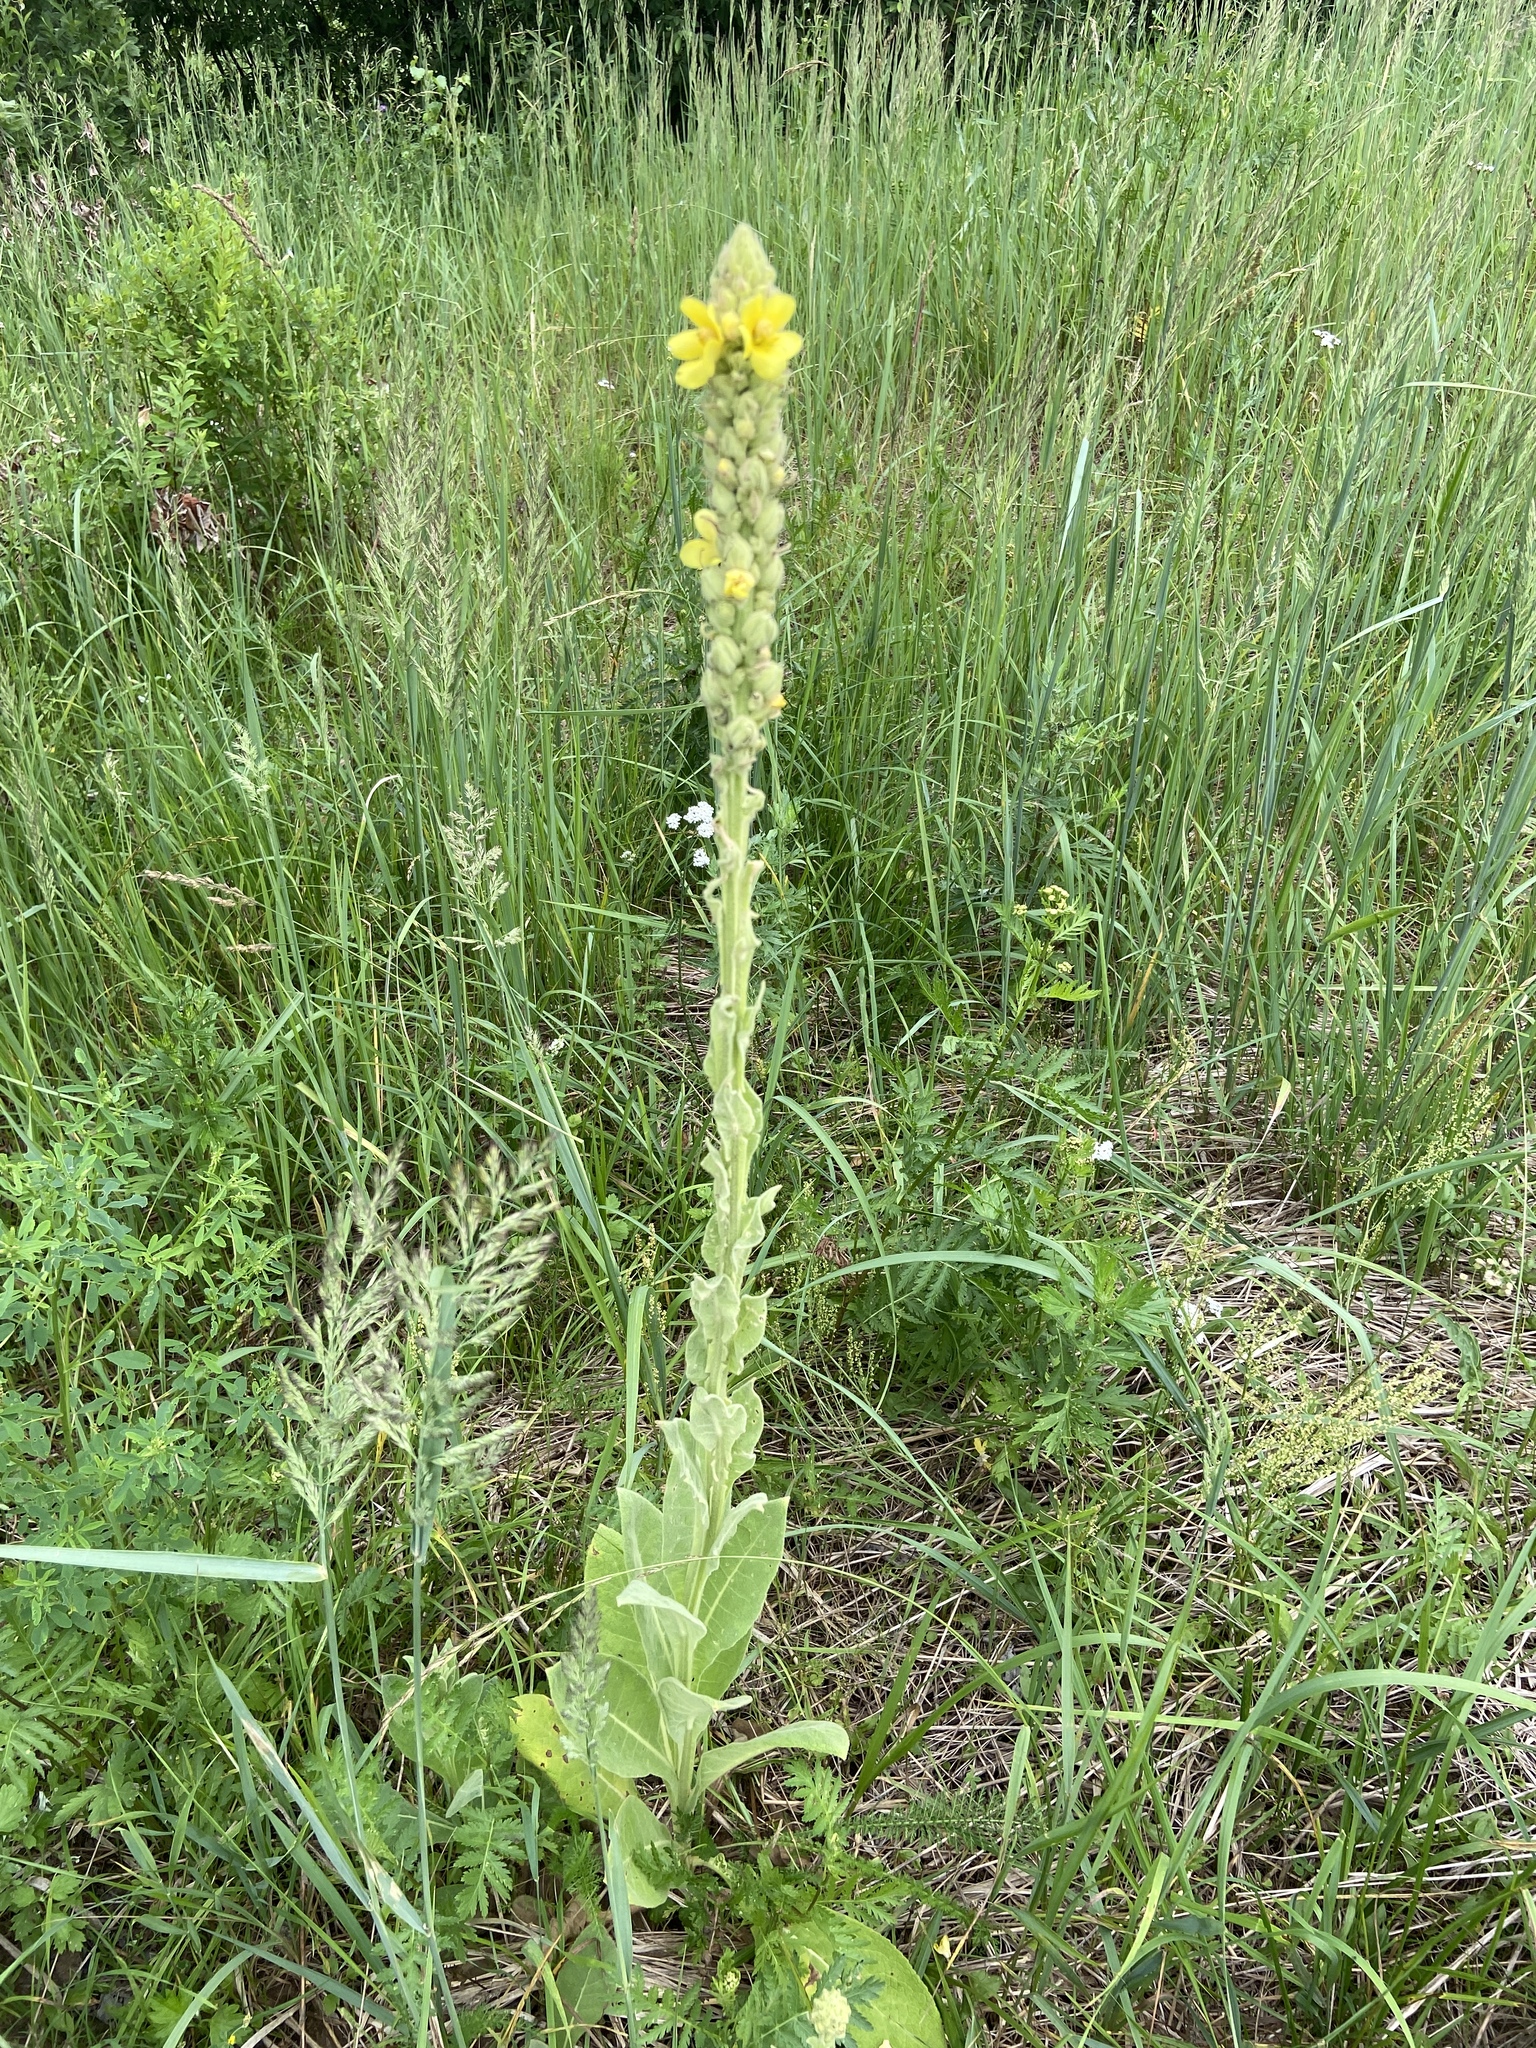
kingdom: Plantae
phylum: Tracheophyta
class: Magnoliopsida
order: Lamiales
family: Scrophulariaceae
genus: Verbascum
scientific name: Verbascum thapsus
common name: Common mullein
